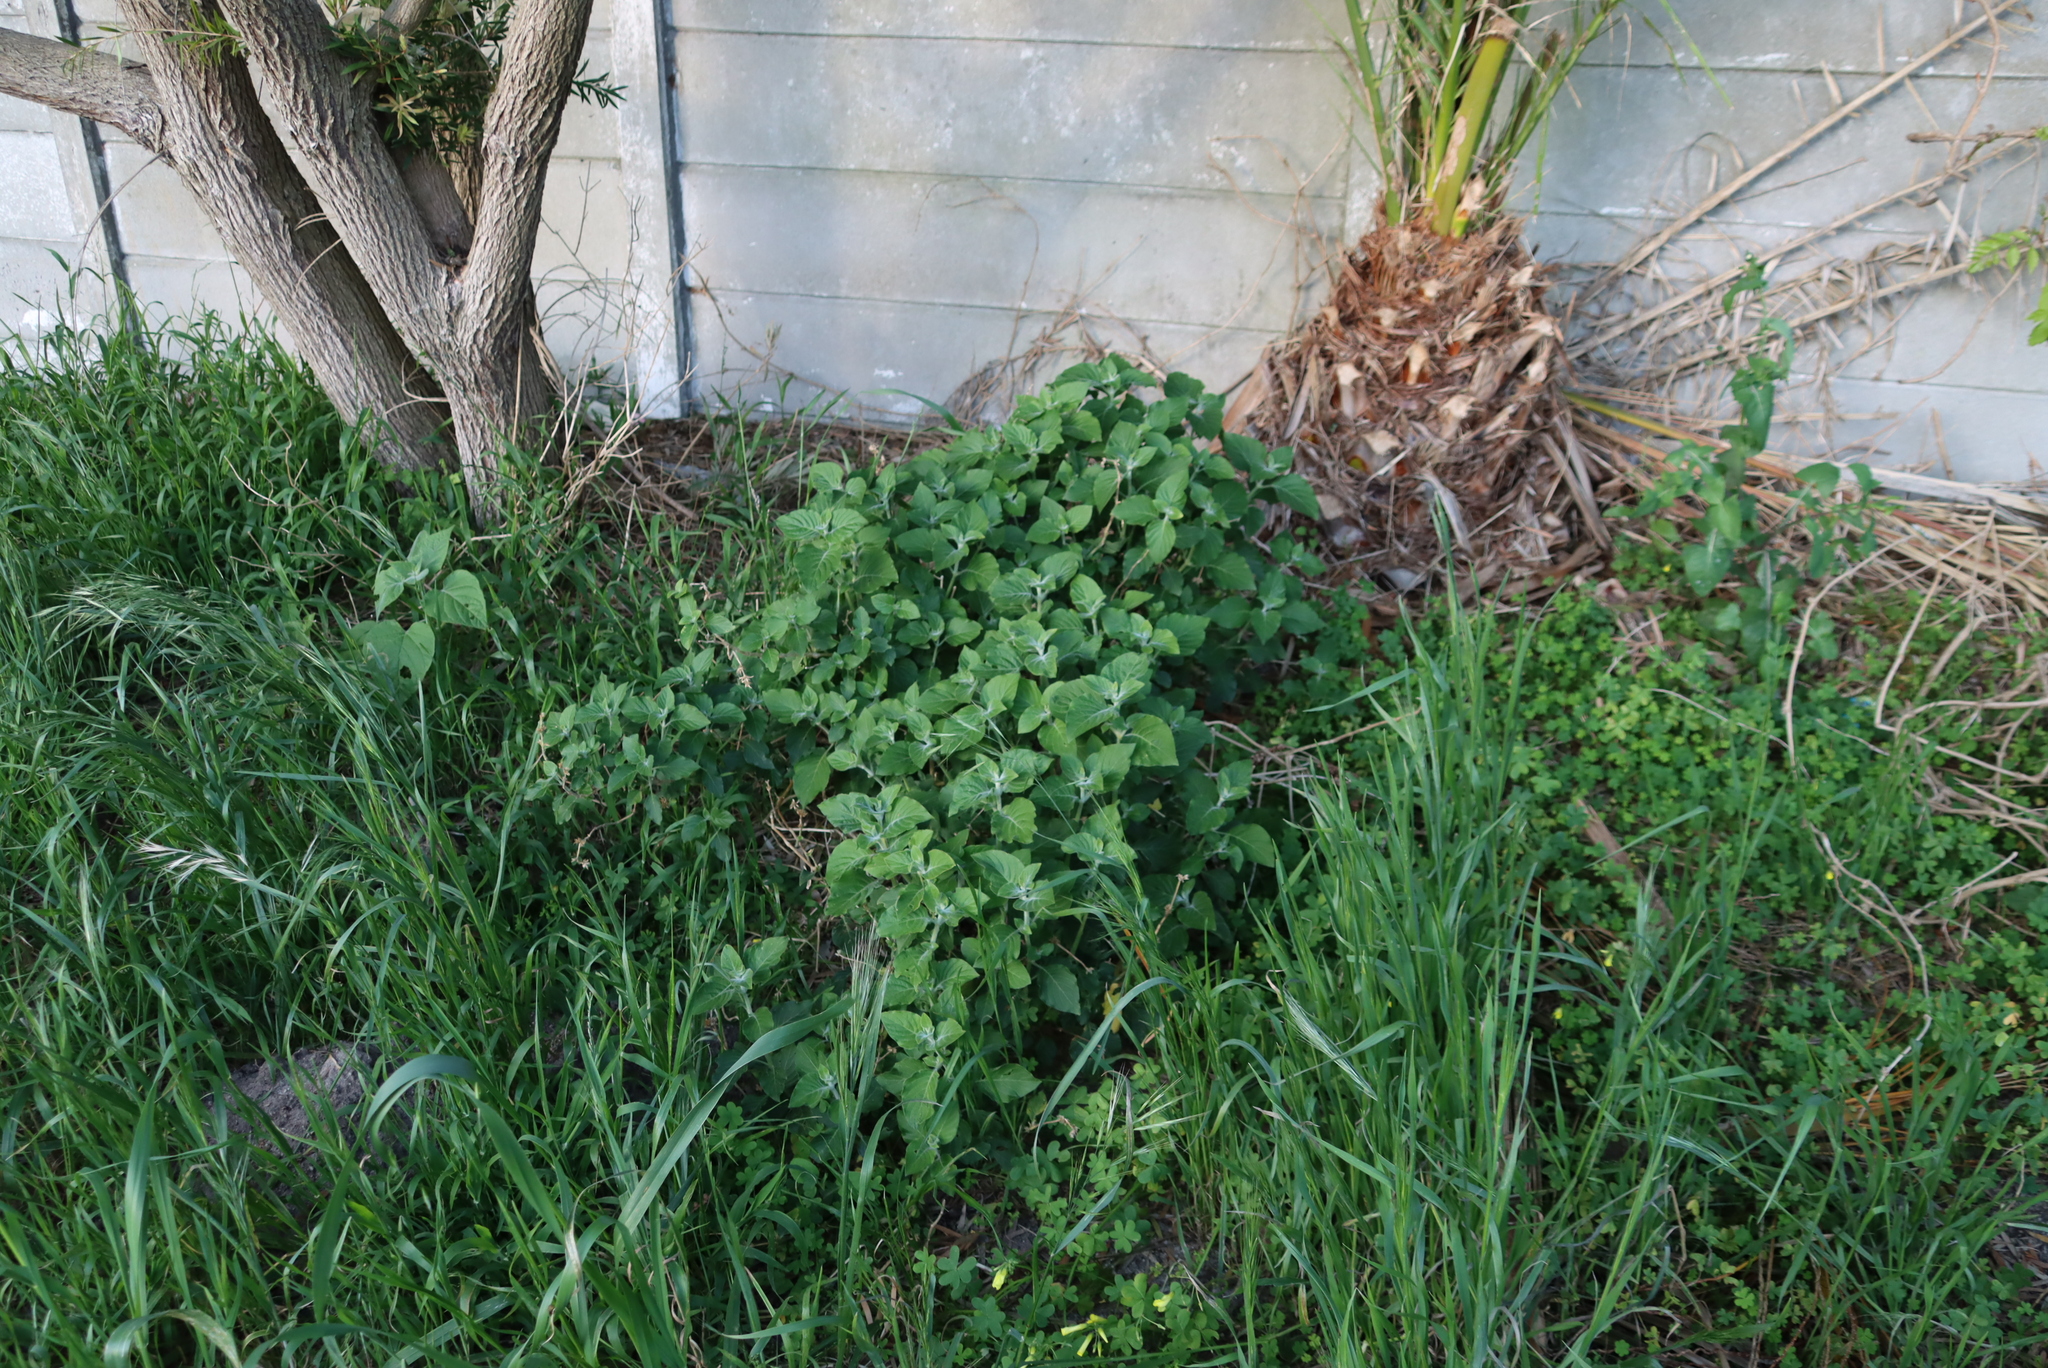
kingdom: Plantae
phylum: Tracheophyta
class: Magnoliopsida
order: Lamiales
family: Acanthaceae
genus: Hypoestes
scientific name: Hypoestes aristata
